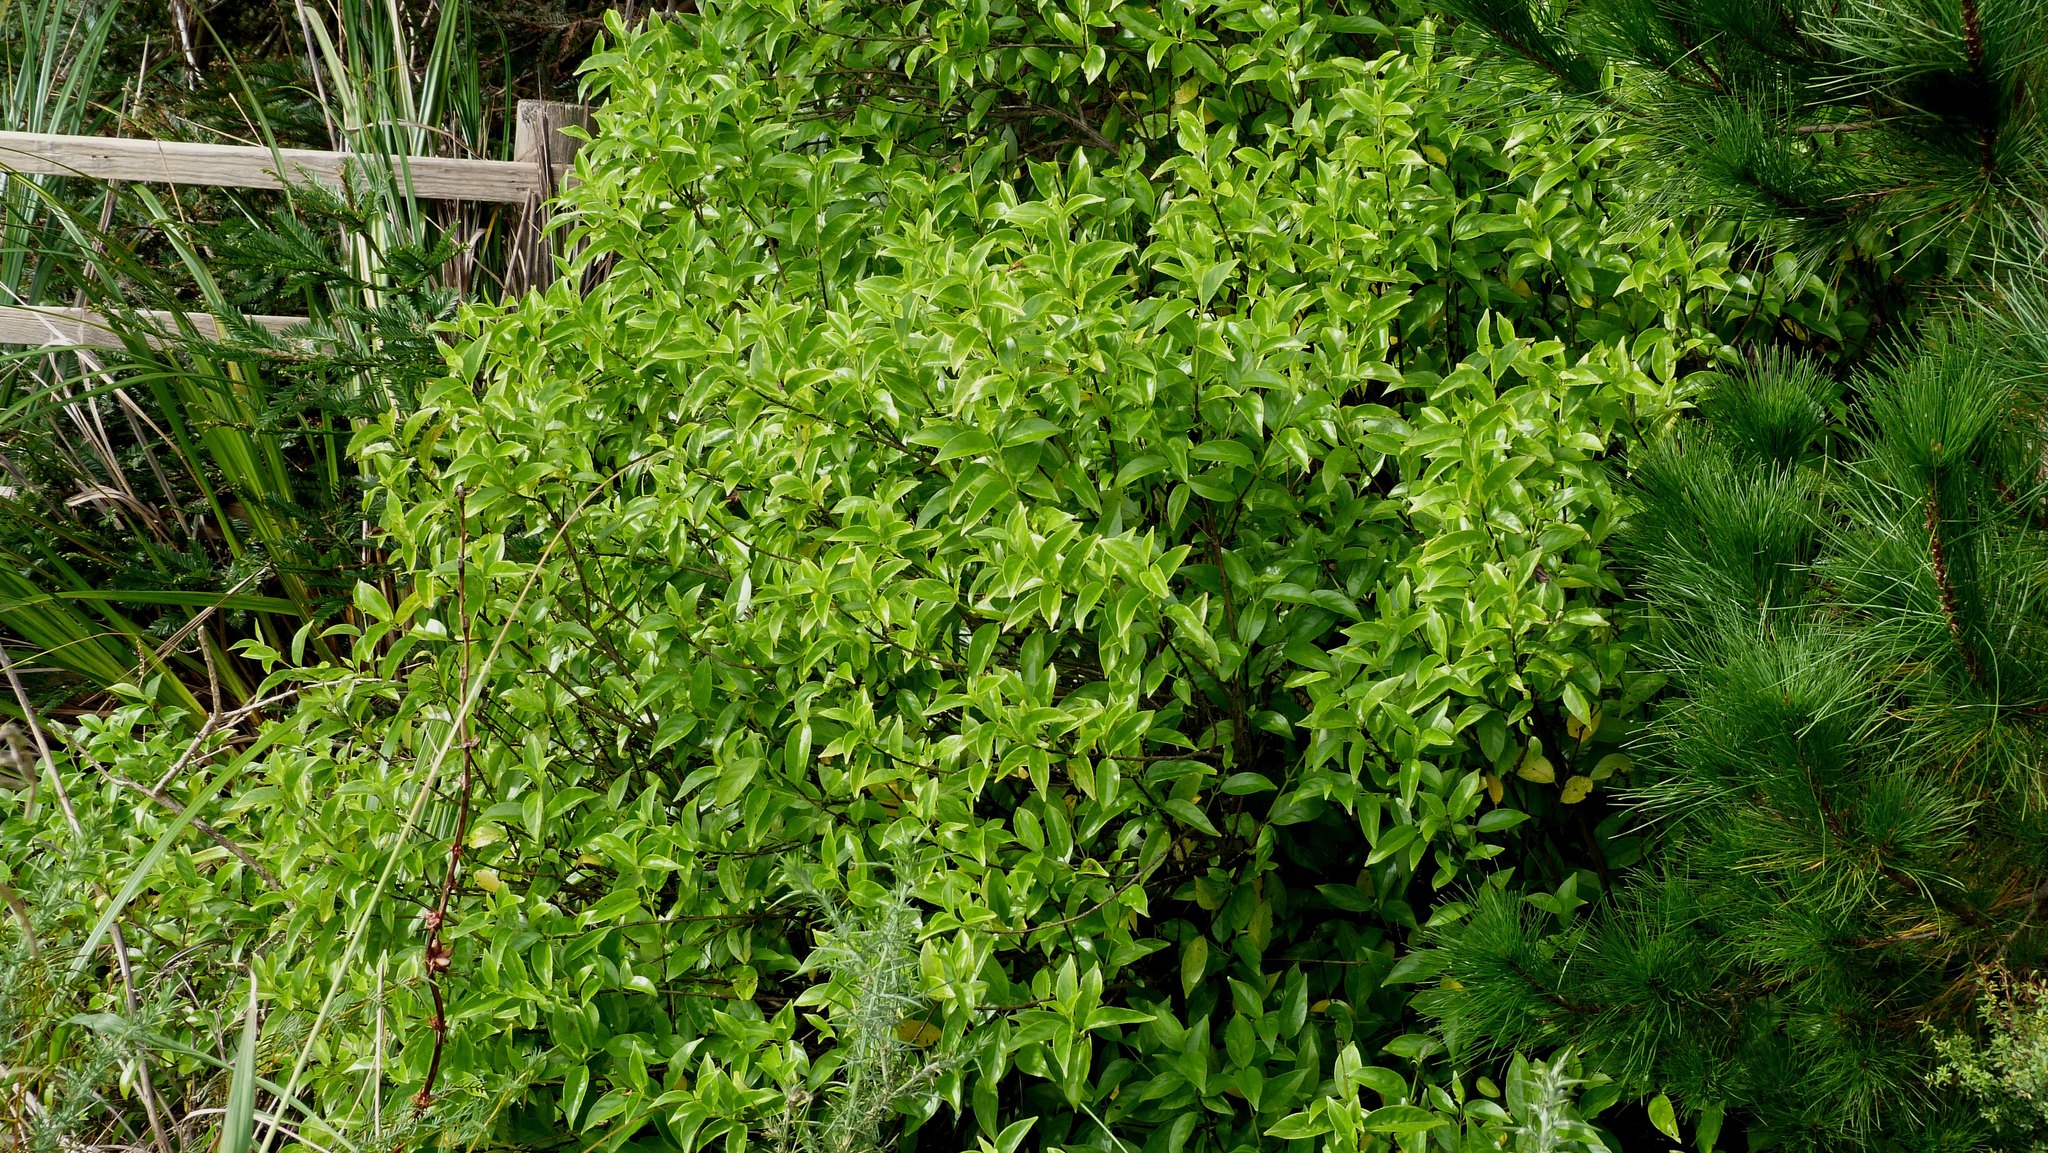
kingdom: Plantae
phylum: Tracheophyta
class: Magnoliopsida
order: Gentianales
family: Loganiaceae
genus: Geniostoma
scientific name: Geniostoma ligustrifolium
